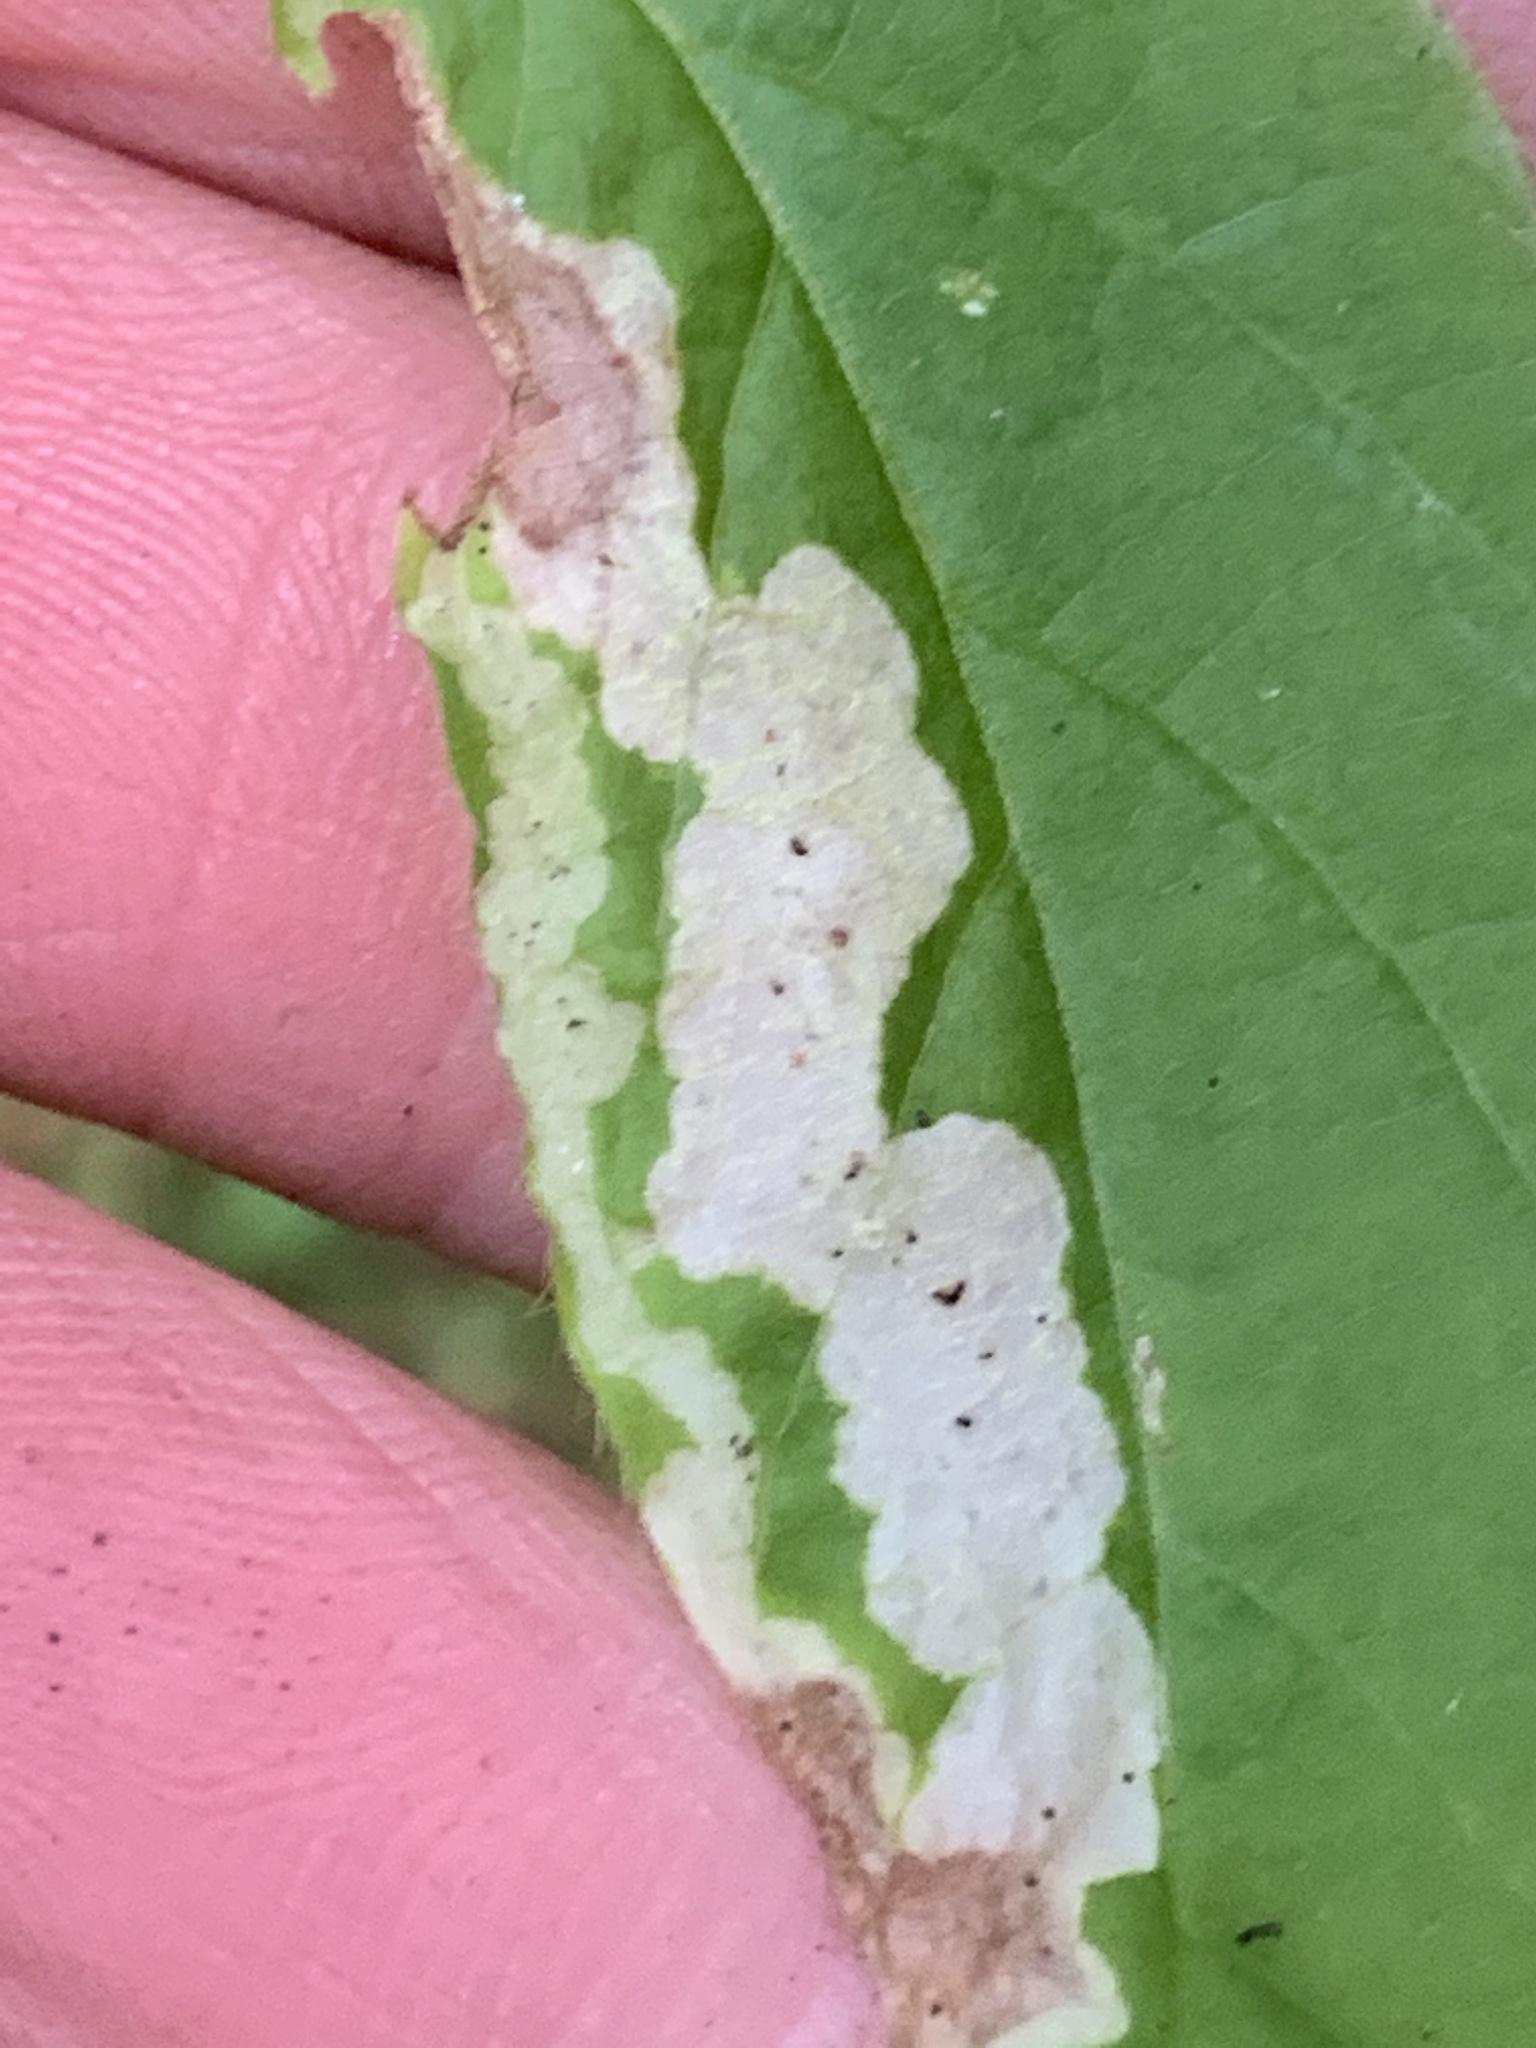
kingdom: Animalia
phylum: Arthropoda
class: Insecta
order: Diptera
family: Agromyzidae
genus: Aulagromyza
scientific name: Aulagromyza cornigera
